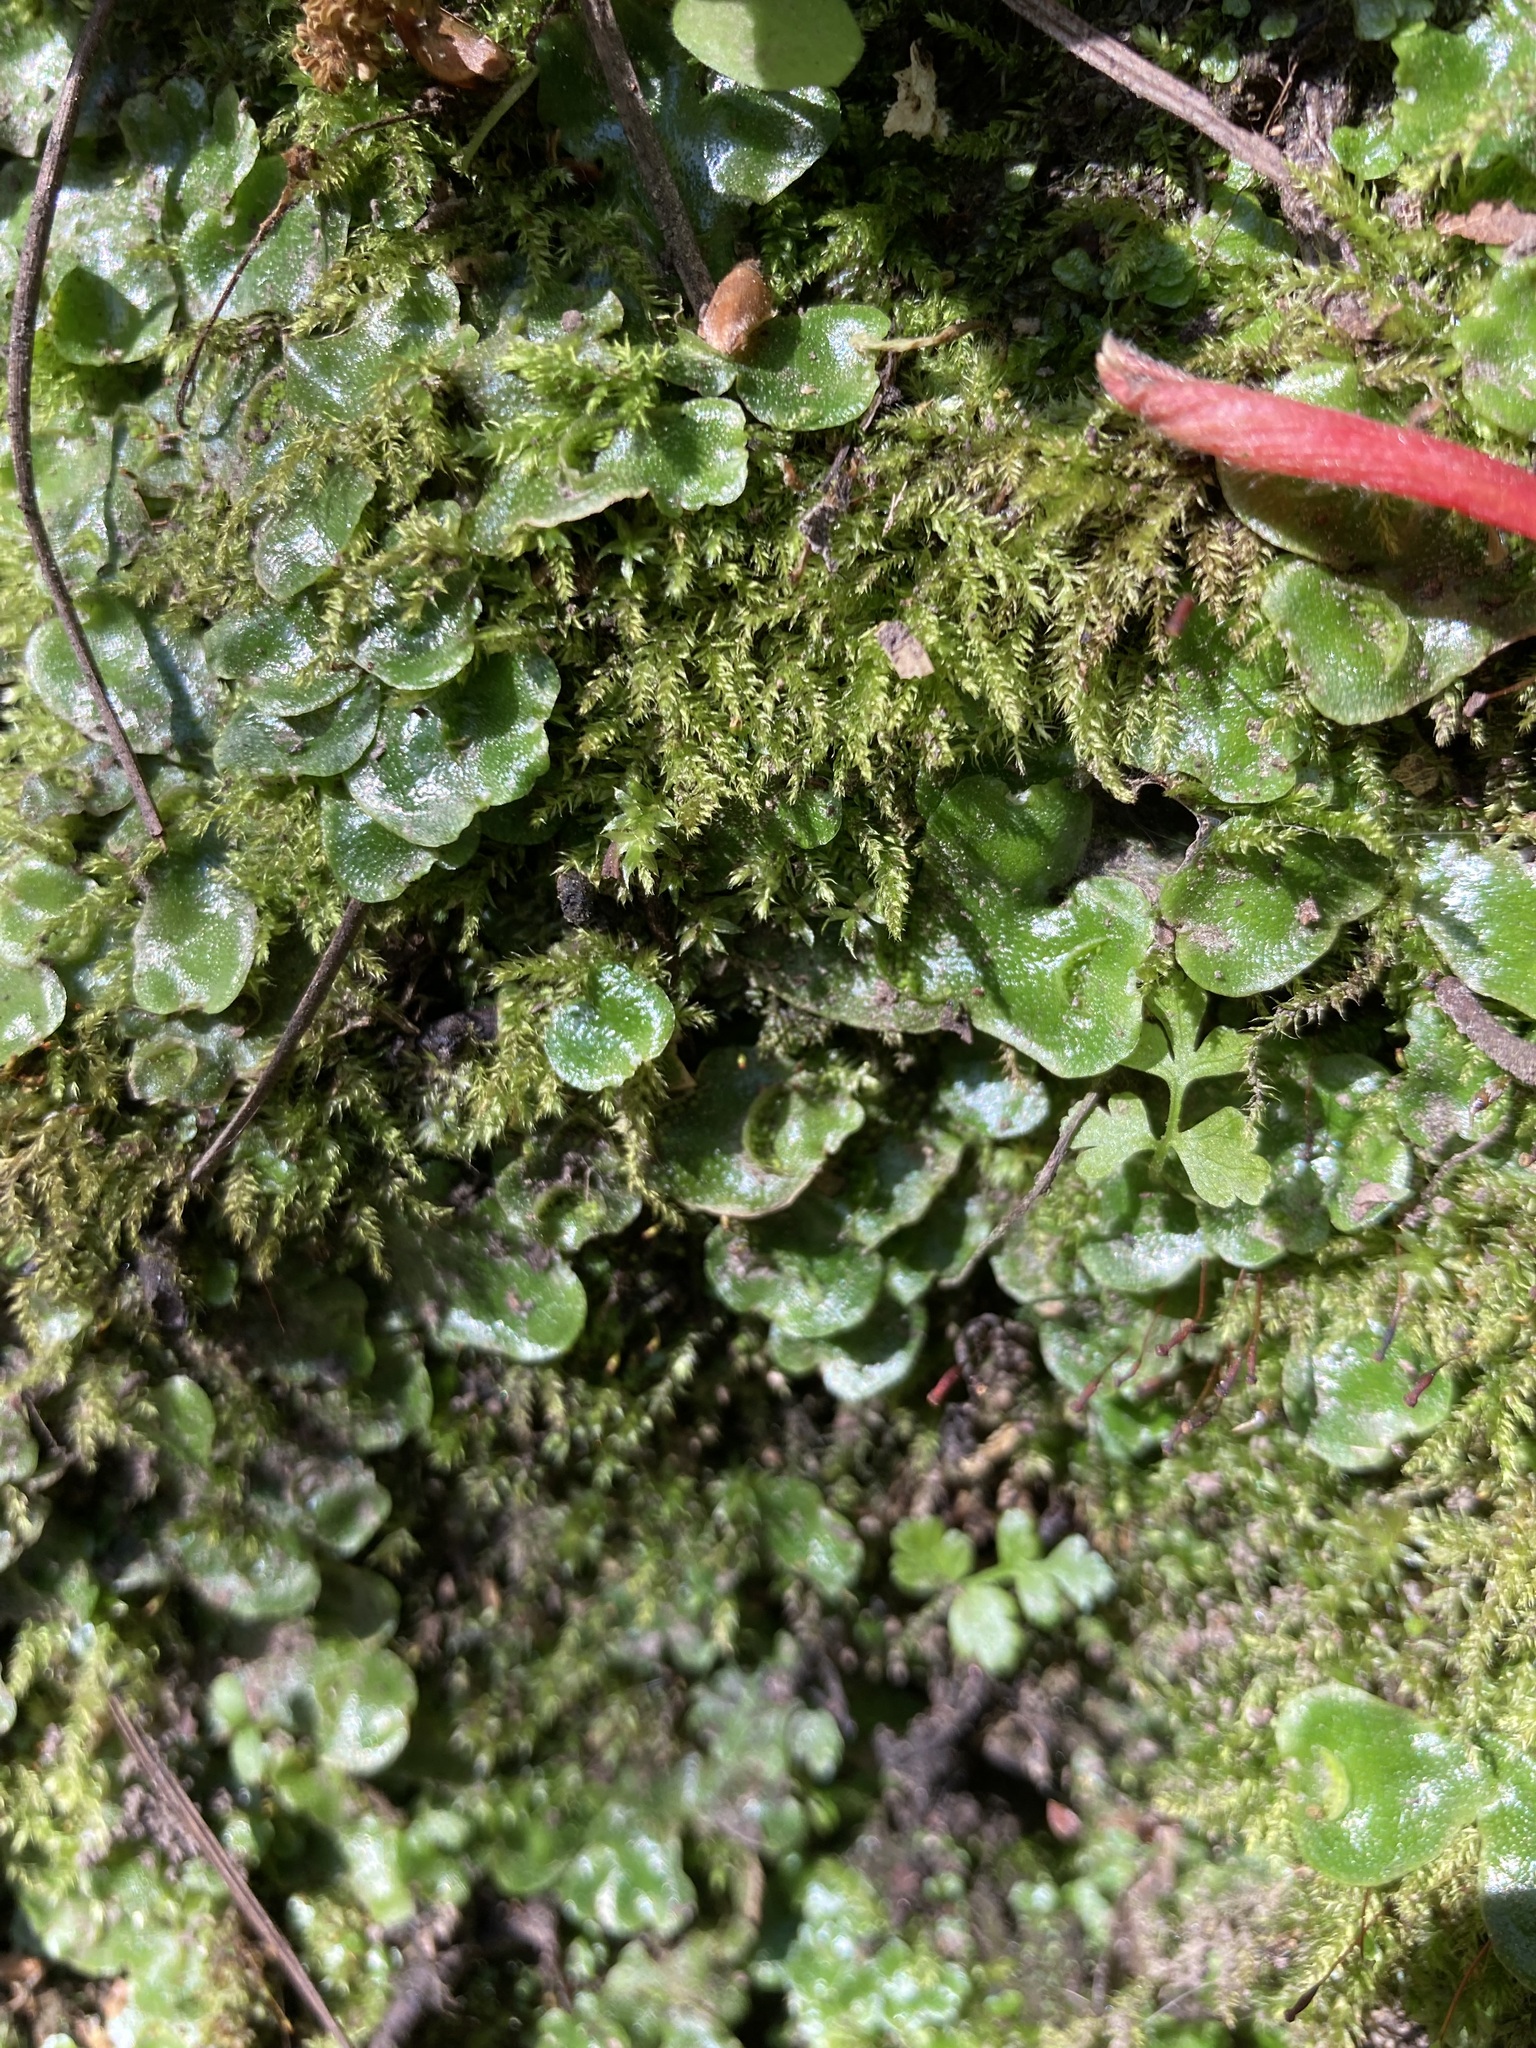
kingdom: Plantae
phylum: Marchantiophyta
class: Marchantiopsida
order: Lunulariales
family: Lunulariaceae
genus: Lunularia
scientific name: Lunularia cruciata
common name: Crescent-cup liverwort
